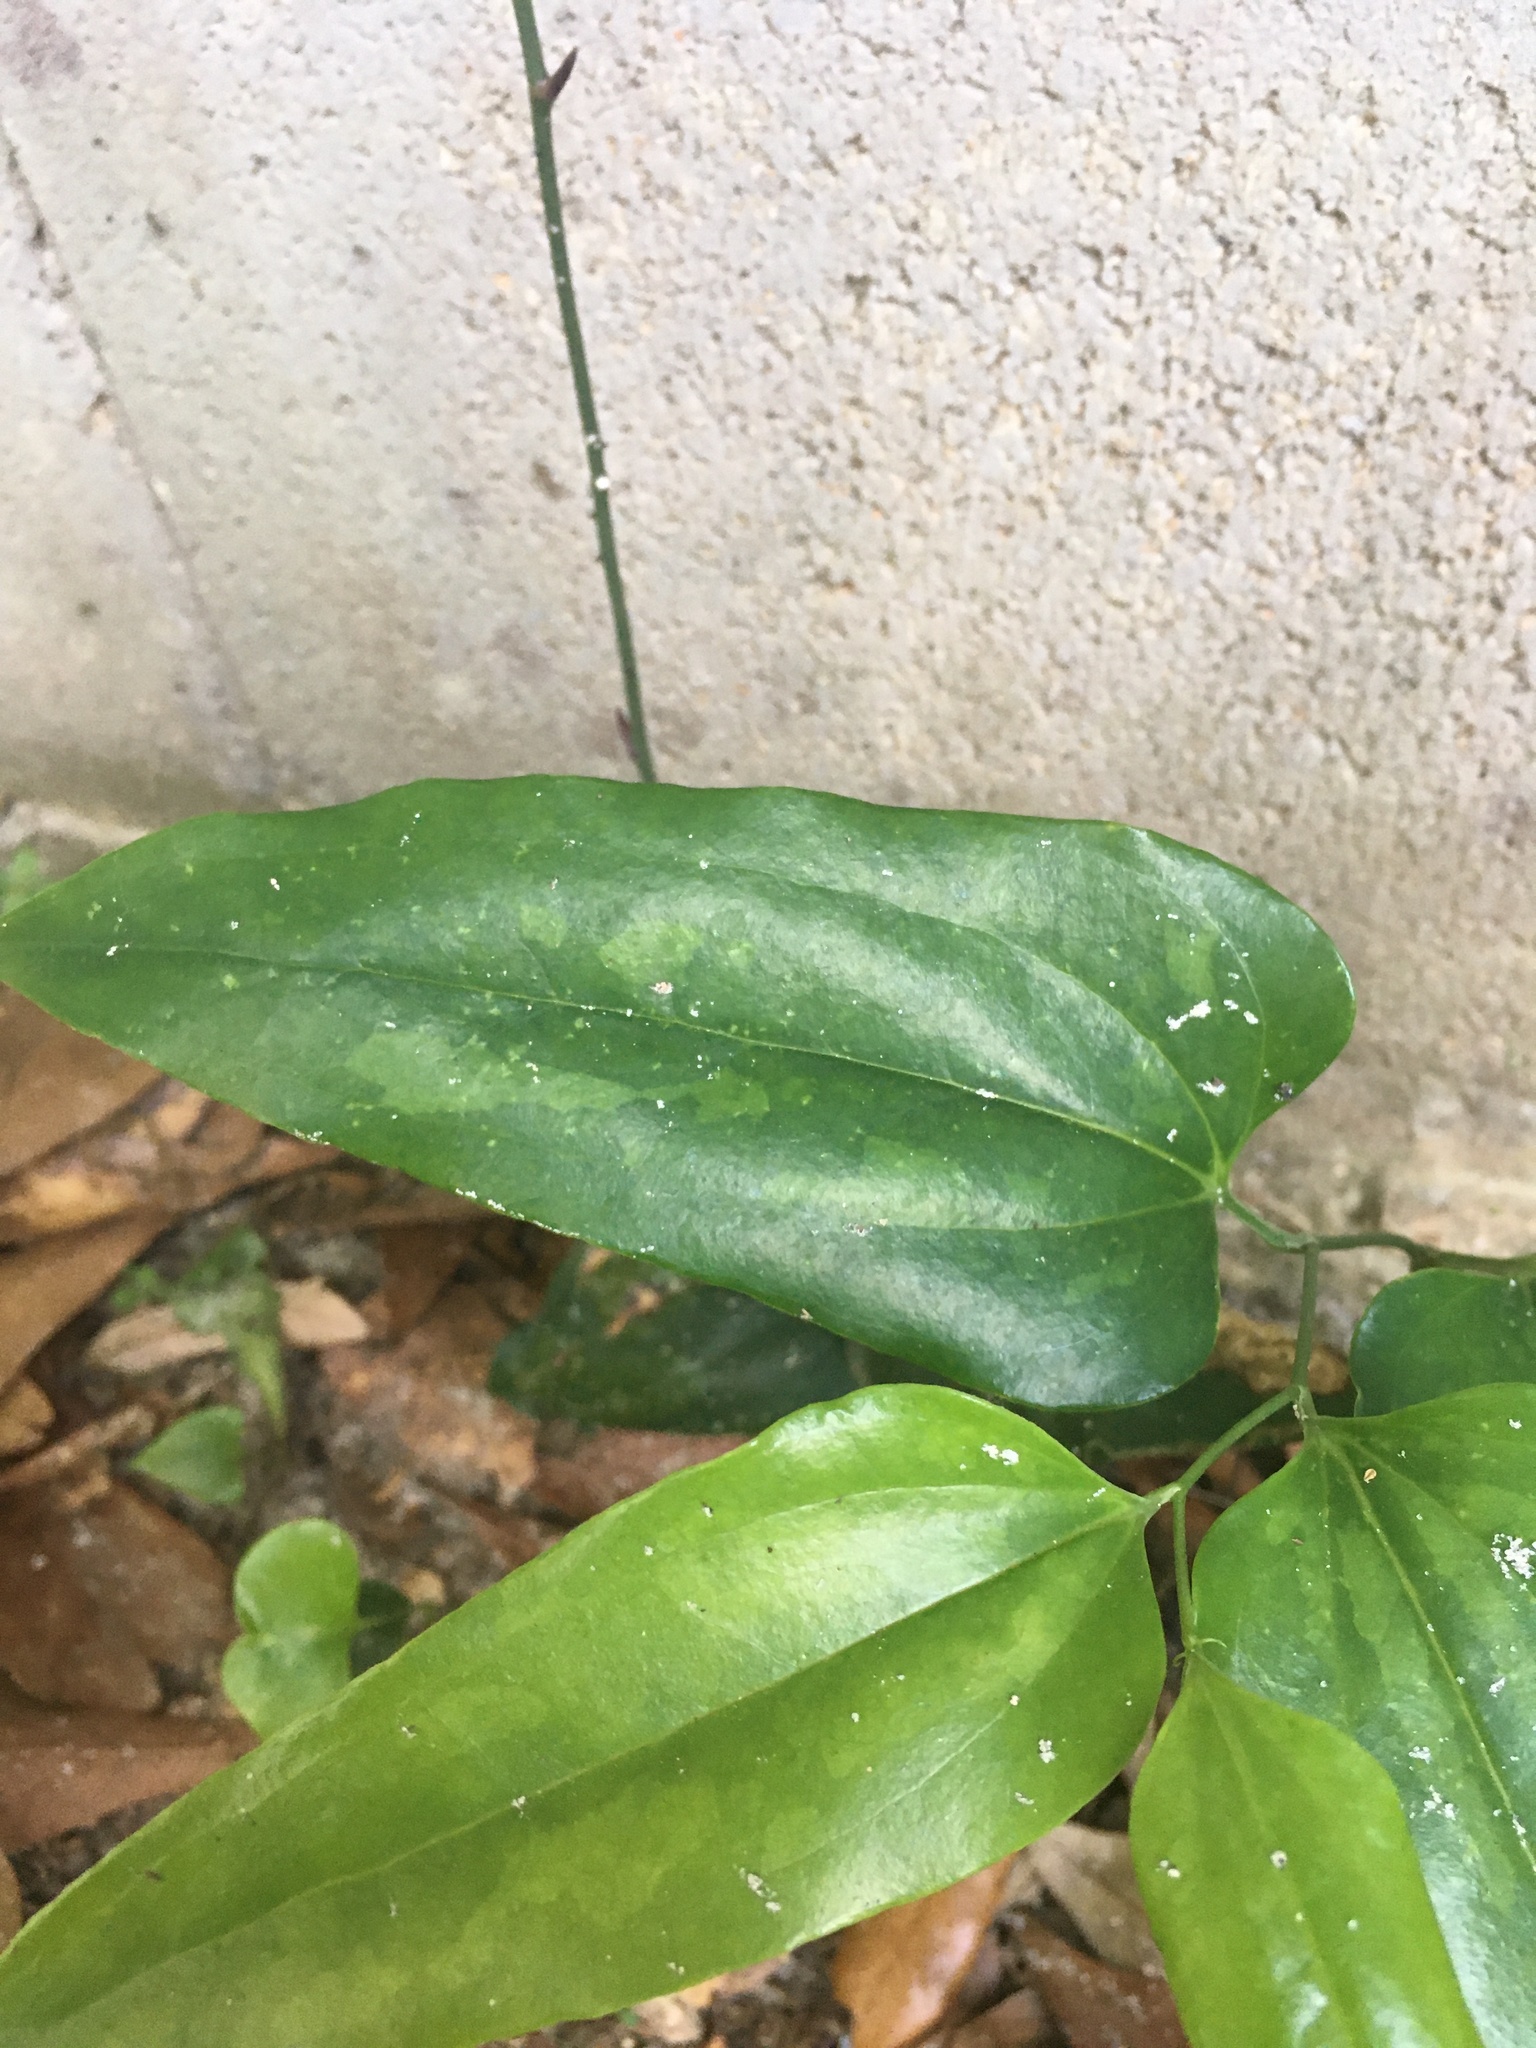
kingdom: Plantae
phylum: Tracheophyta
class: Liliopsida
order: Liliales
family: Smilacaceae
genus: Smilax
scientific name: Smilax maritima
